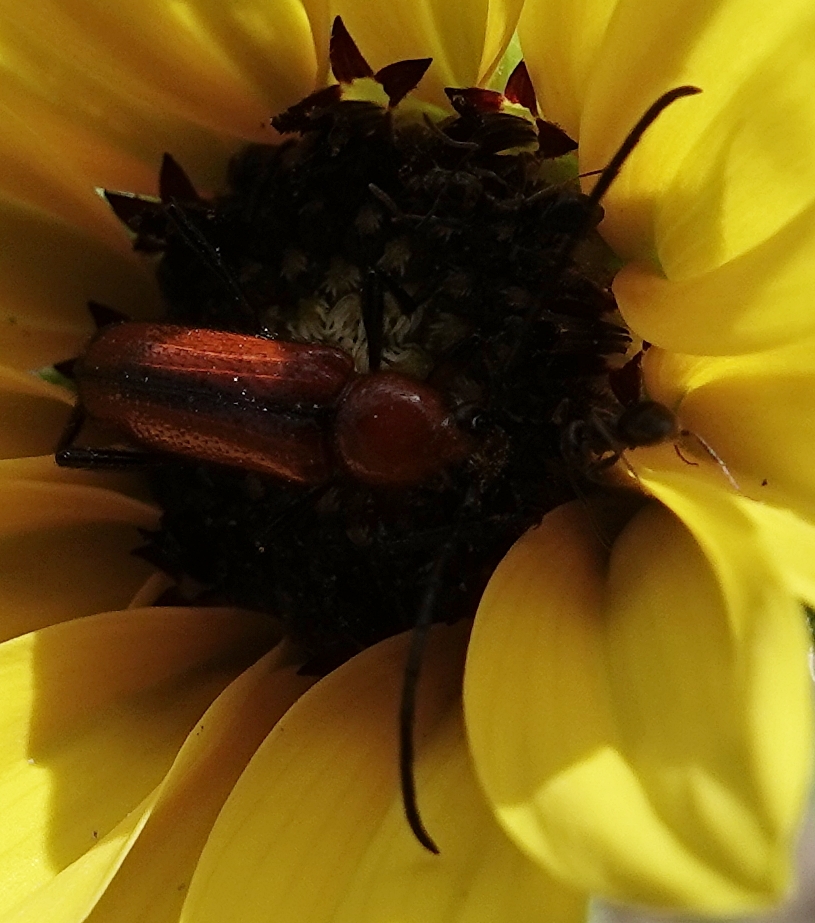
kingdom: Animalia
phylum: Arthropoda
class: Insecta
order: Coleoptera
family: Cerambycidae
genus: Batyle
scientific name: Batyle suturalis
